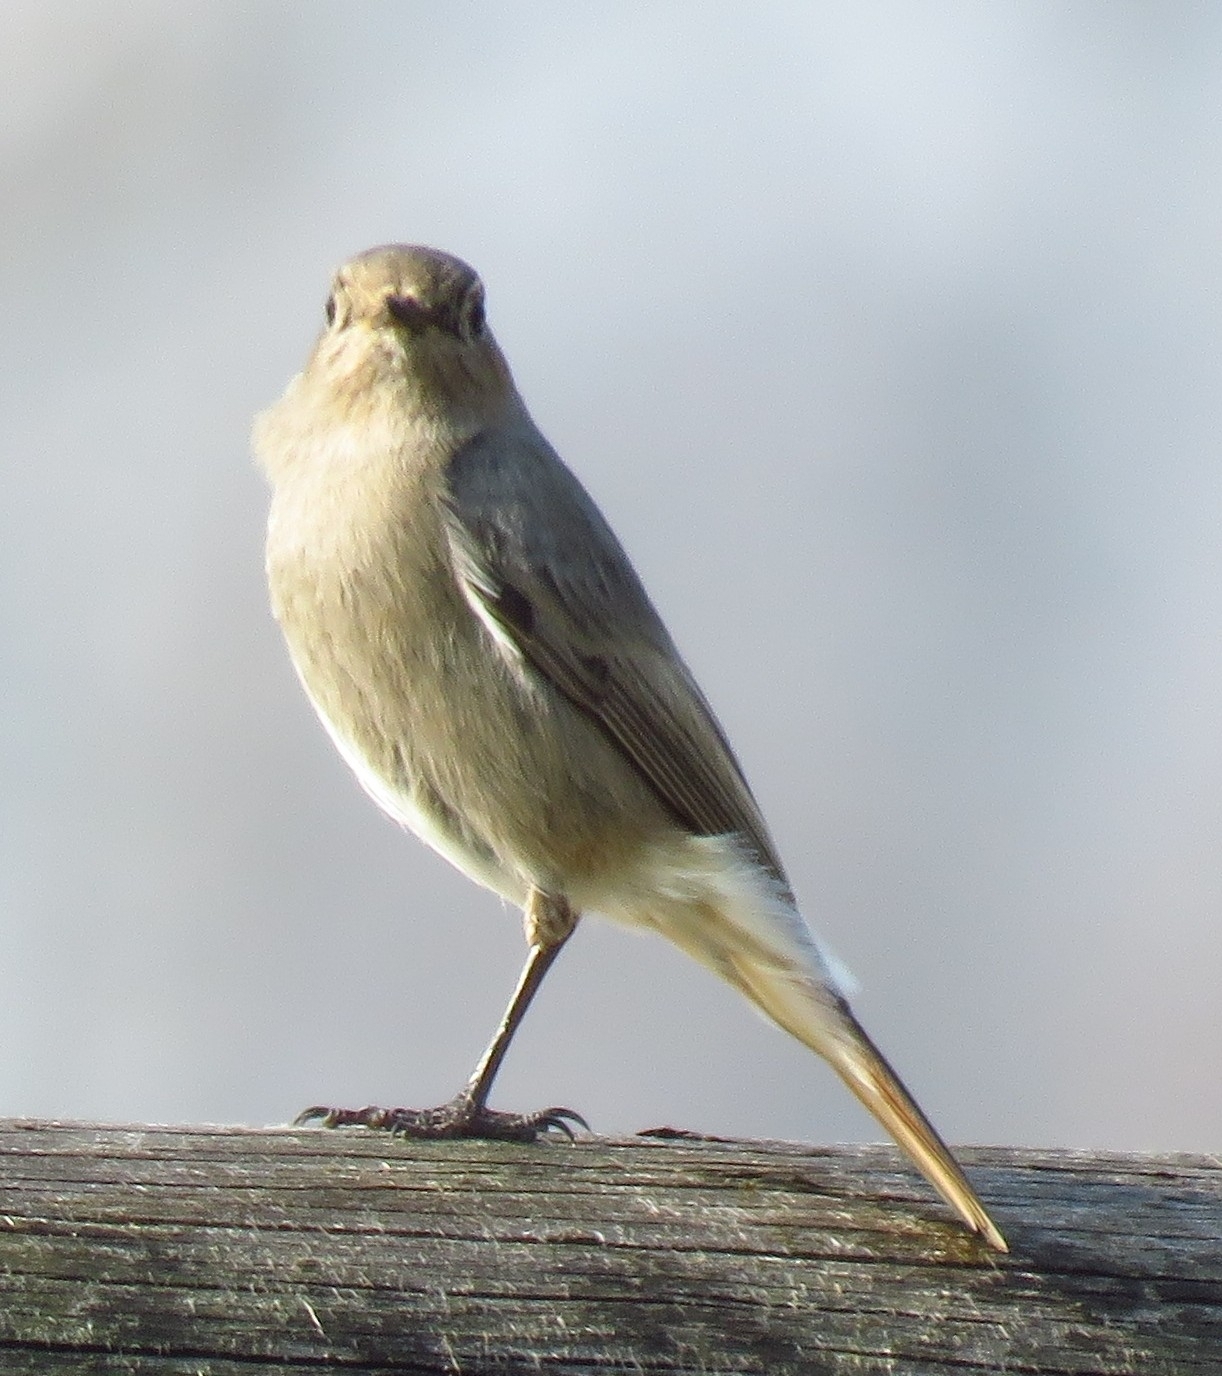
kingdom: Animalia
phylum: Chordata
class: Aves
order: Passeriformes
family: Muscicapidae
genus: Phoenicurus
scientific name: Phoenicurus ochruros
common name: Black redstart
